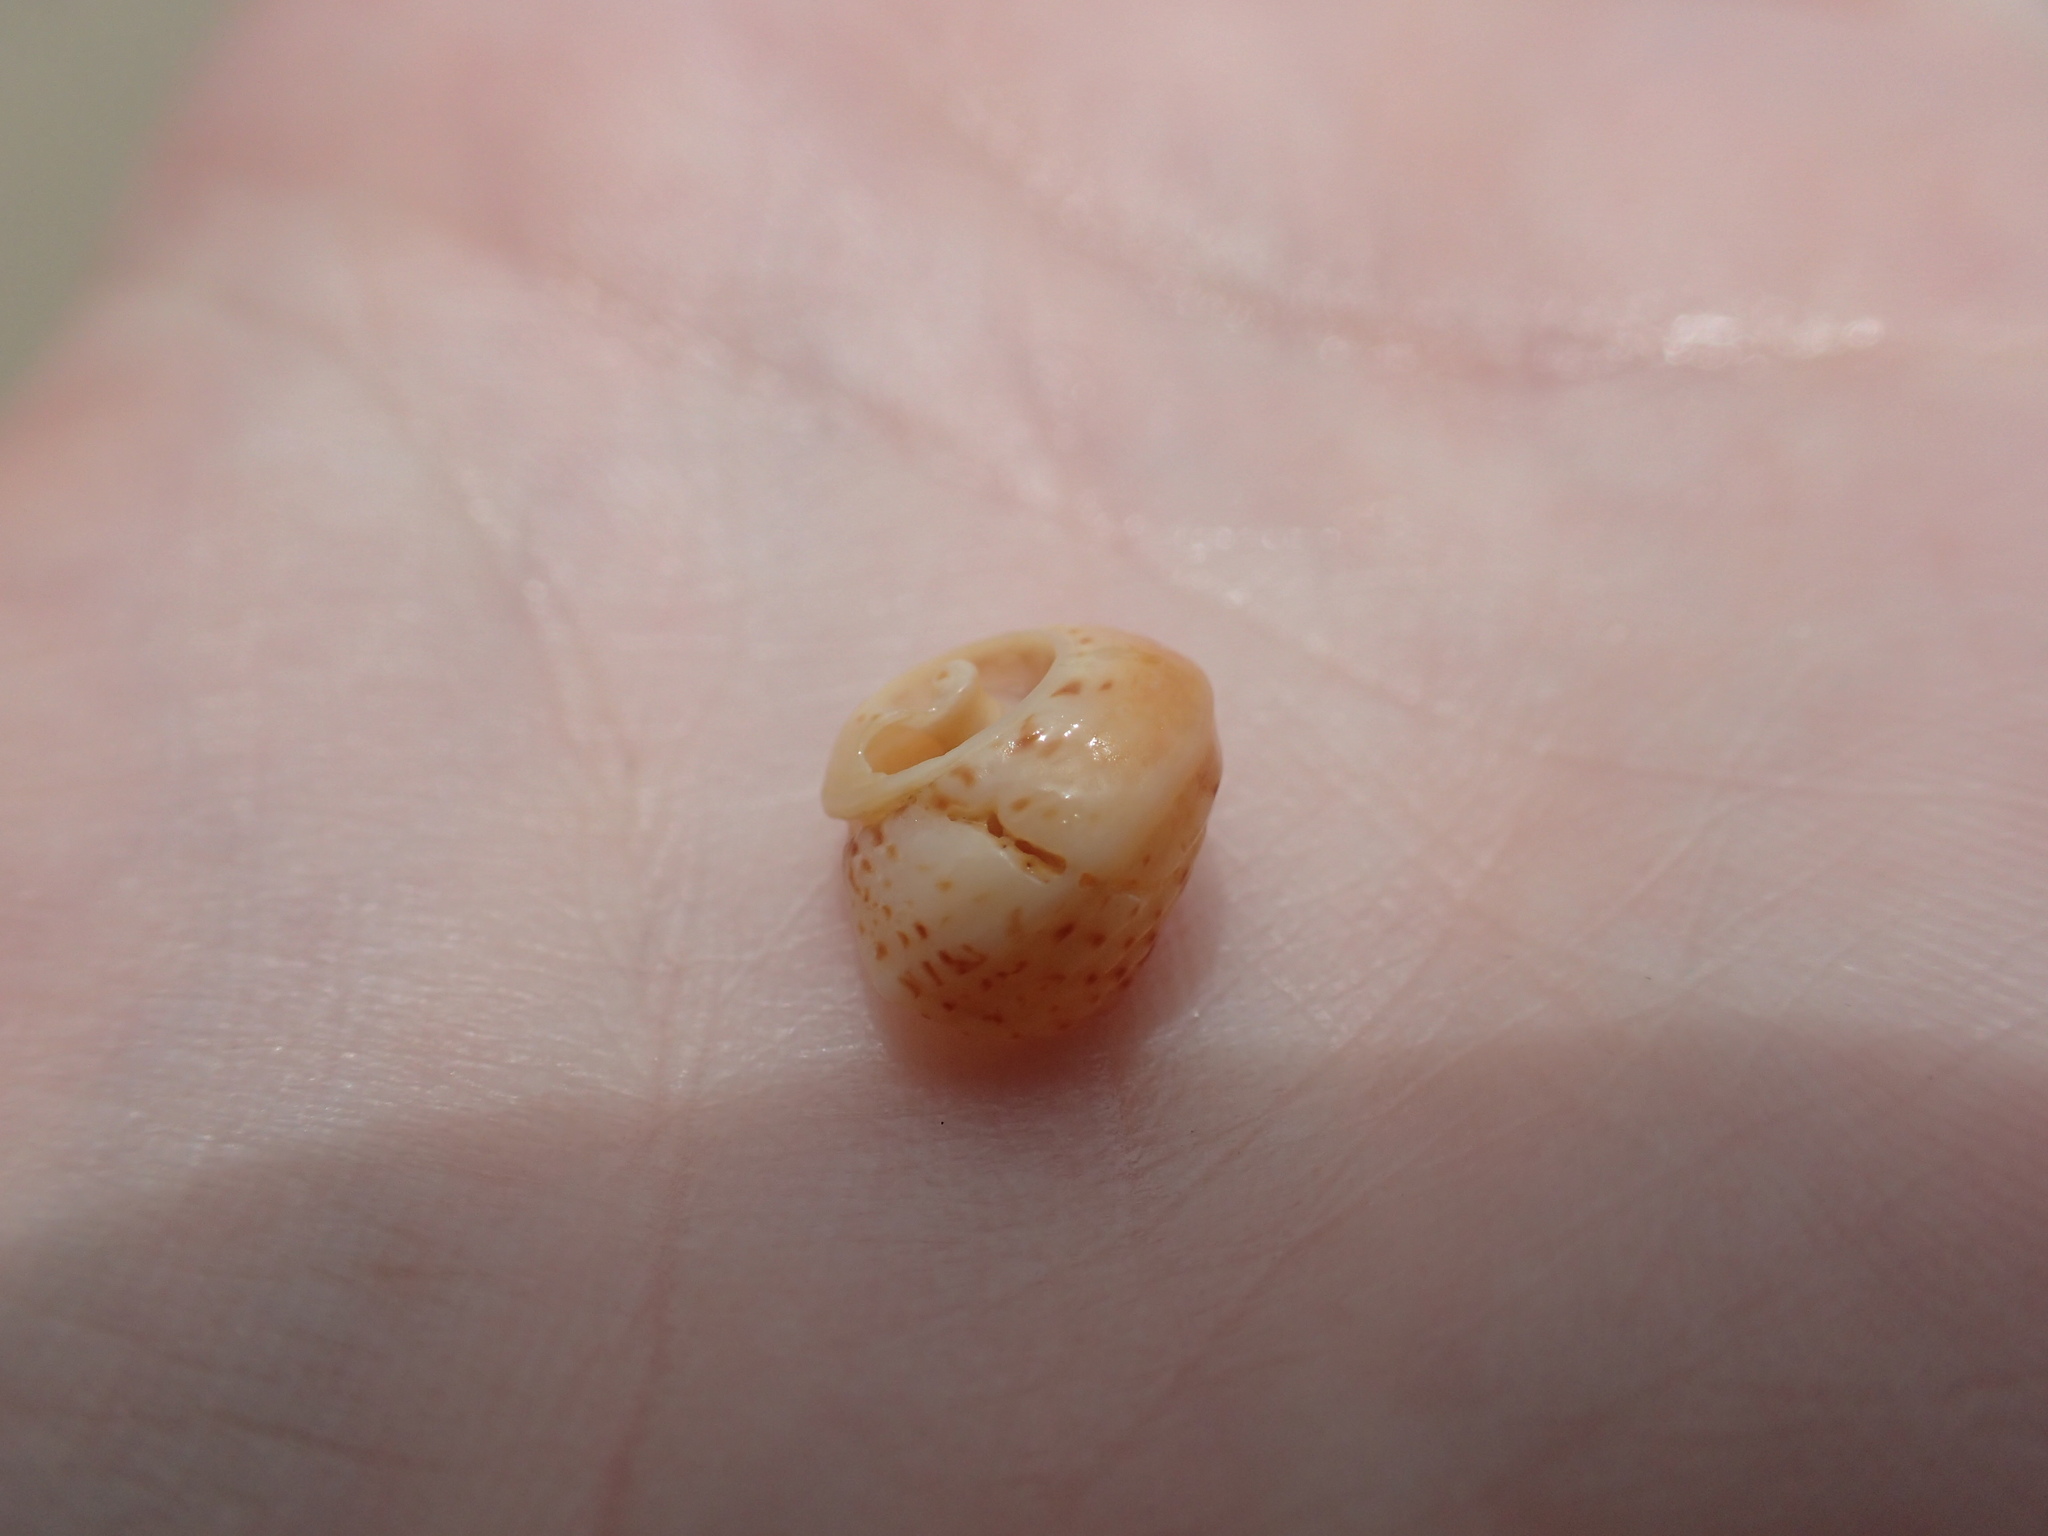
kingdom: Animalia
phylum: Mollusca
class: Gastropoda
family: Modulidae
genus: Modulus
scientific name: Modulus modulus
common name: Atlantic modulus
